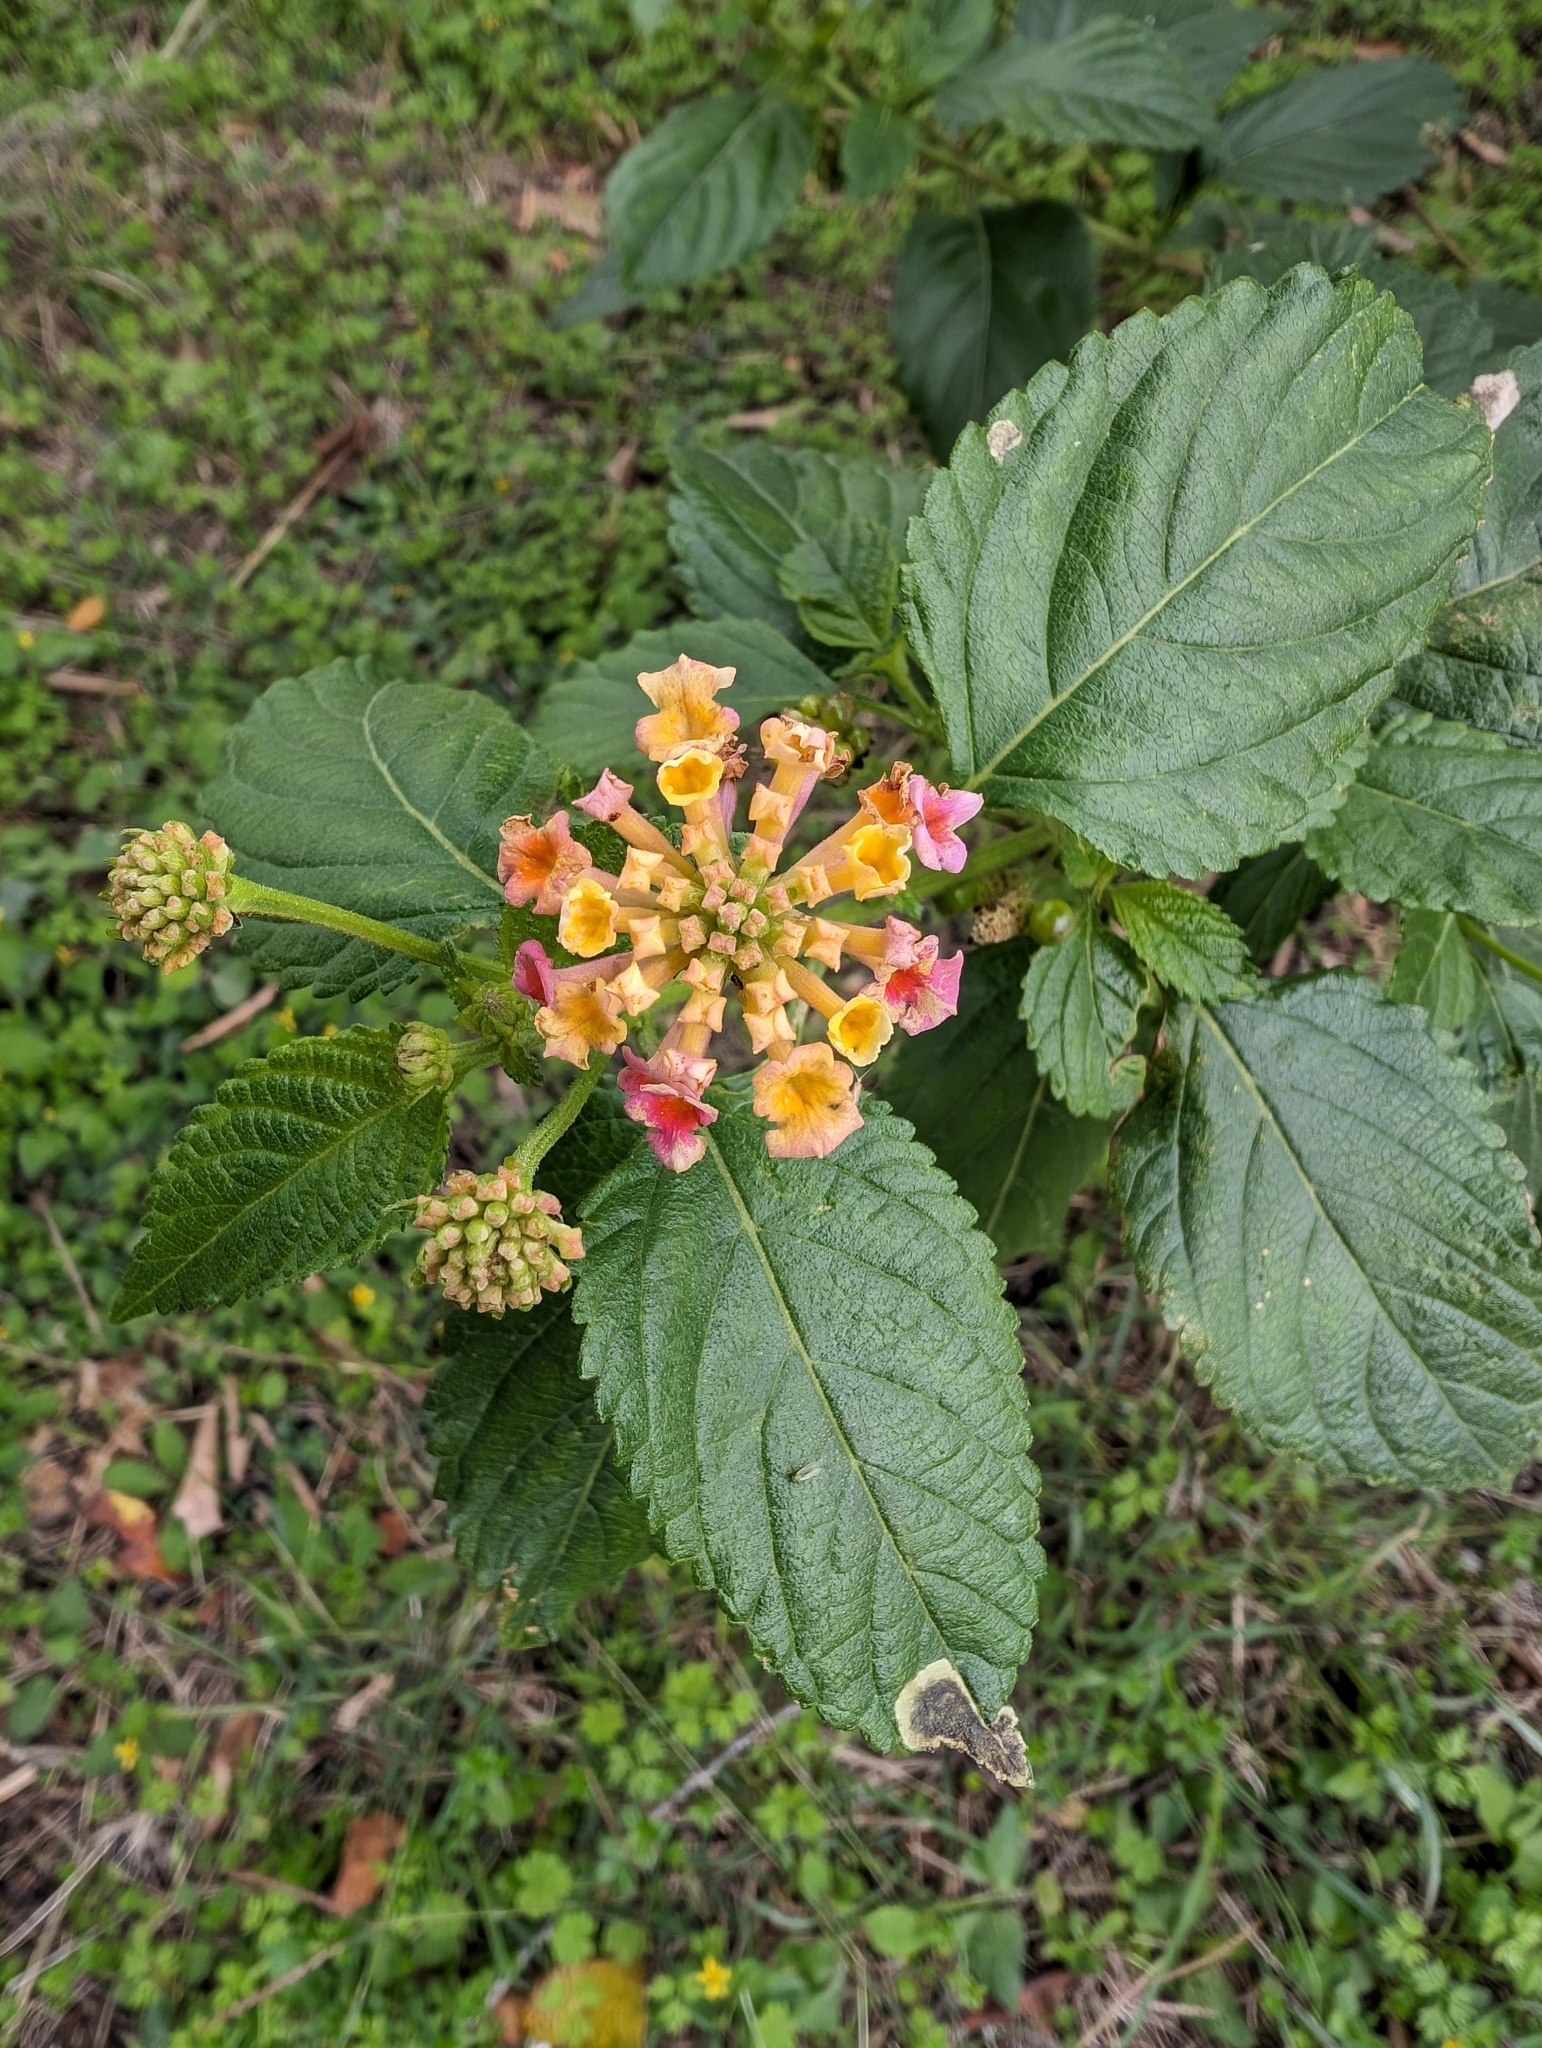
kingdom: Plantae
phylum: Tracheophyta
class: Magnoliopsida
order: Lamiales
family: Verbenaceae
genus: Lantana
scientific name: Lantana strigocamara
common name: Lantana
